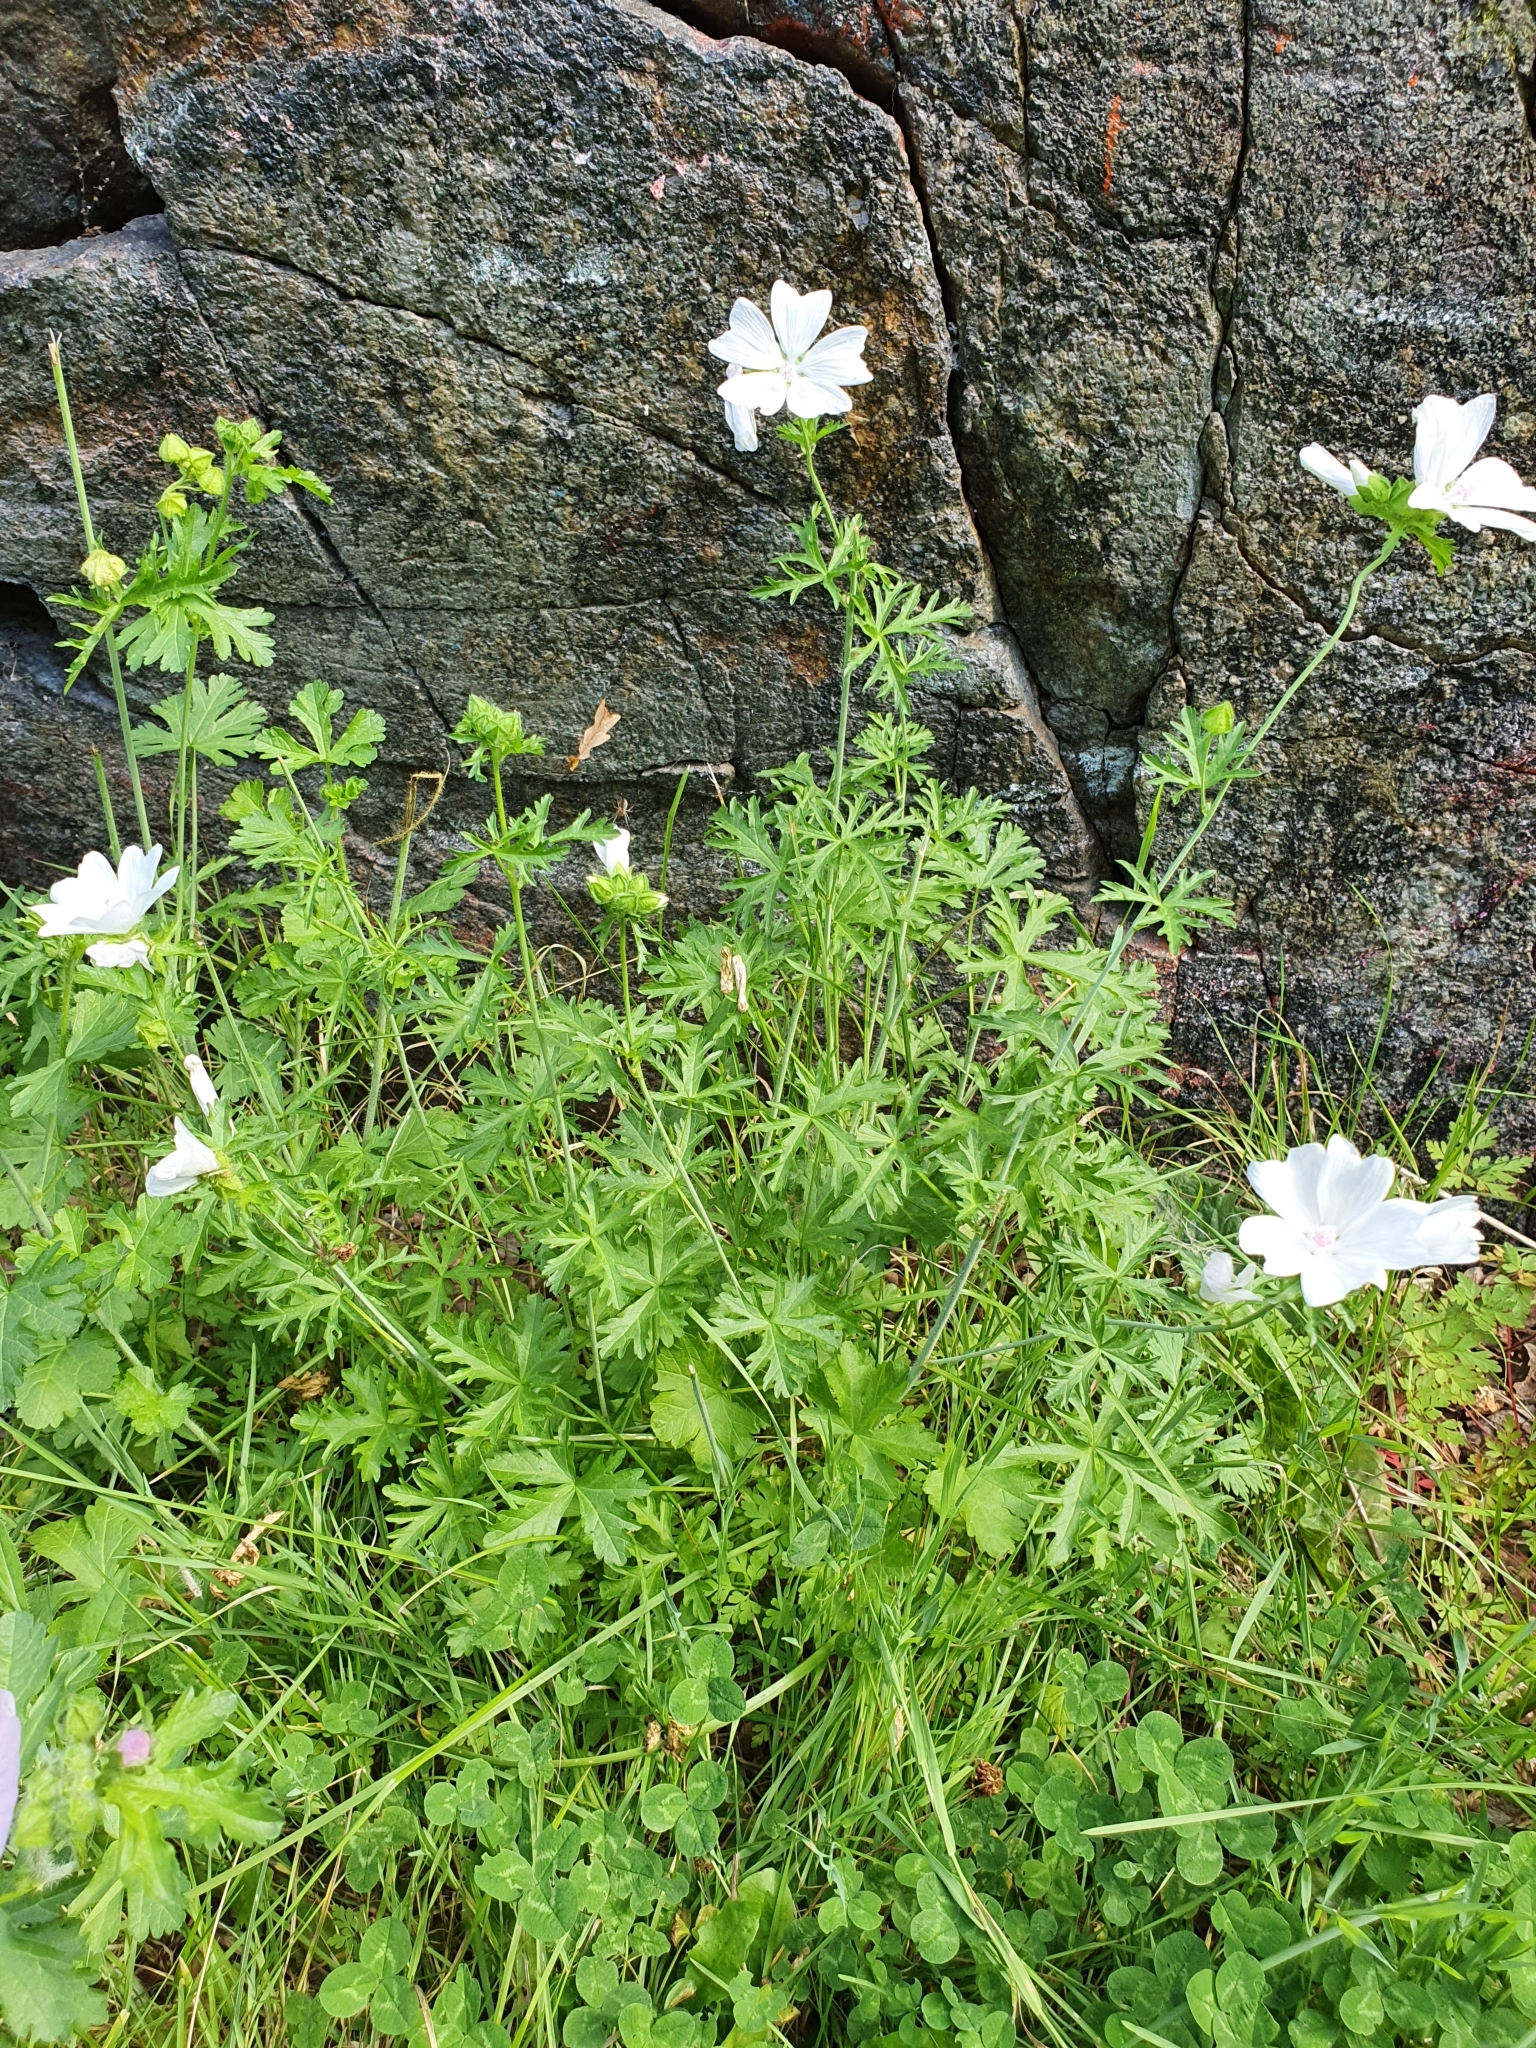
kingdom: Plantae
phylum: Tracheophyta
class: Magnoliopsida
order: Malvales
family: Malvaceae
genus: Malva
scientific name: Malva moschata
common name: Musk mallow
